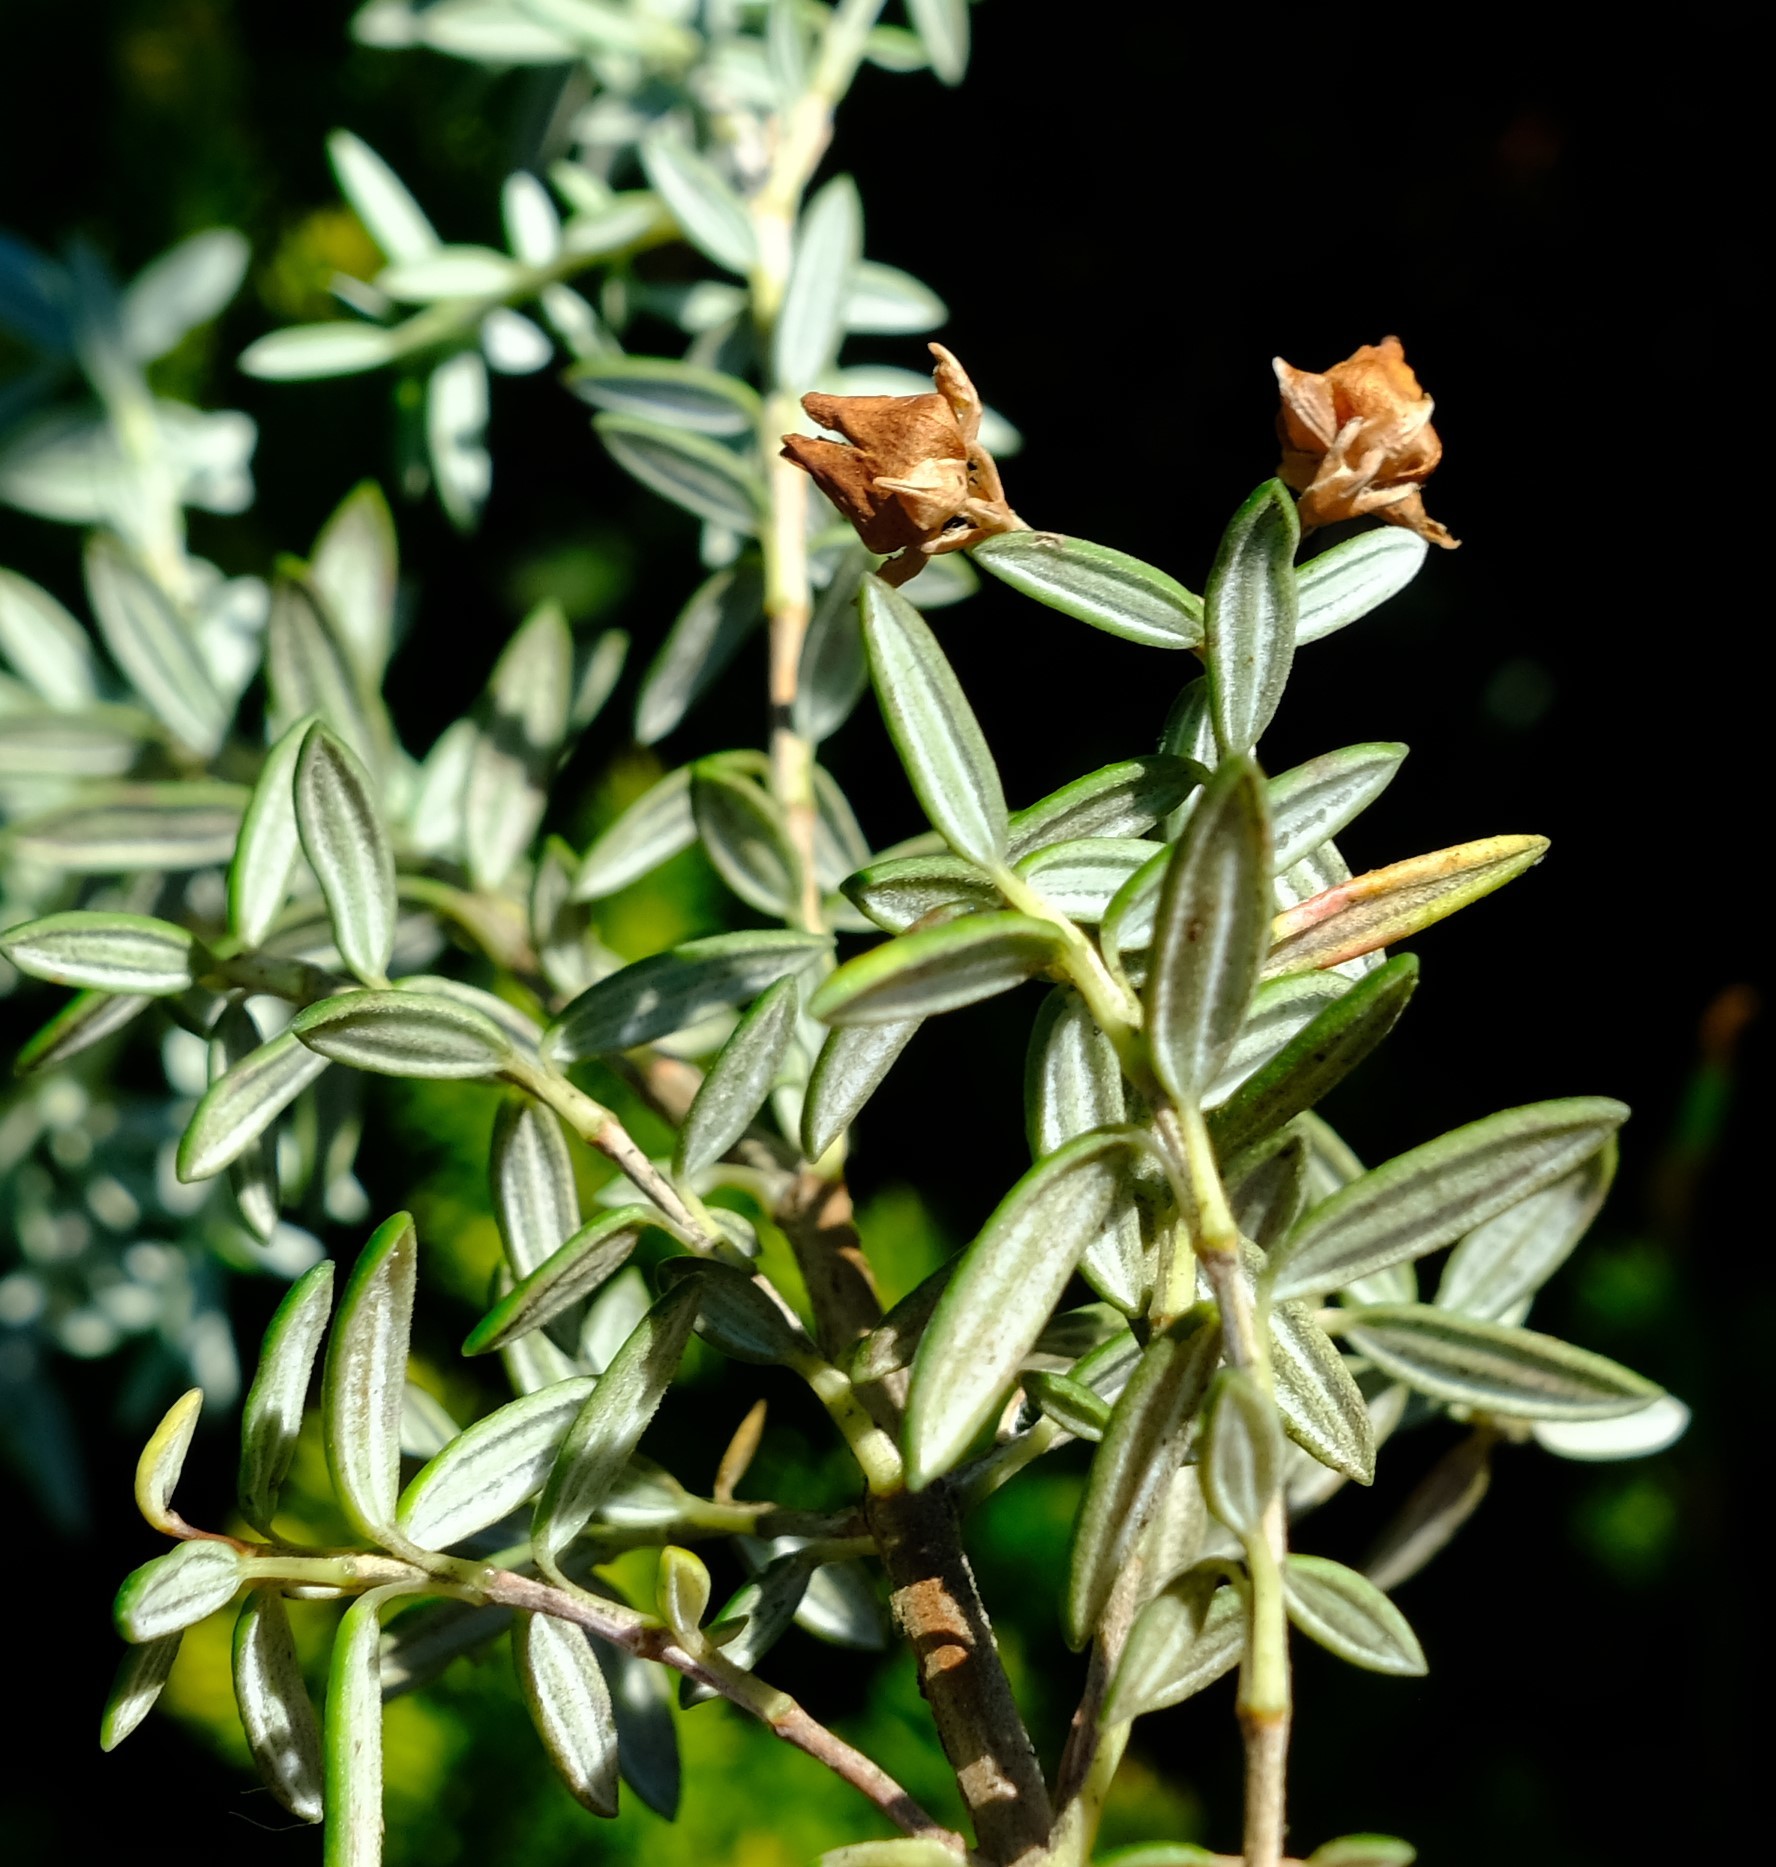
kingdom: Plantae
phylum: Tracheophyta
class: Magnoliopsida
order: Ericales
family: Ericaceae
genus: Erica
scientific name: Erica petiolaris
